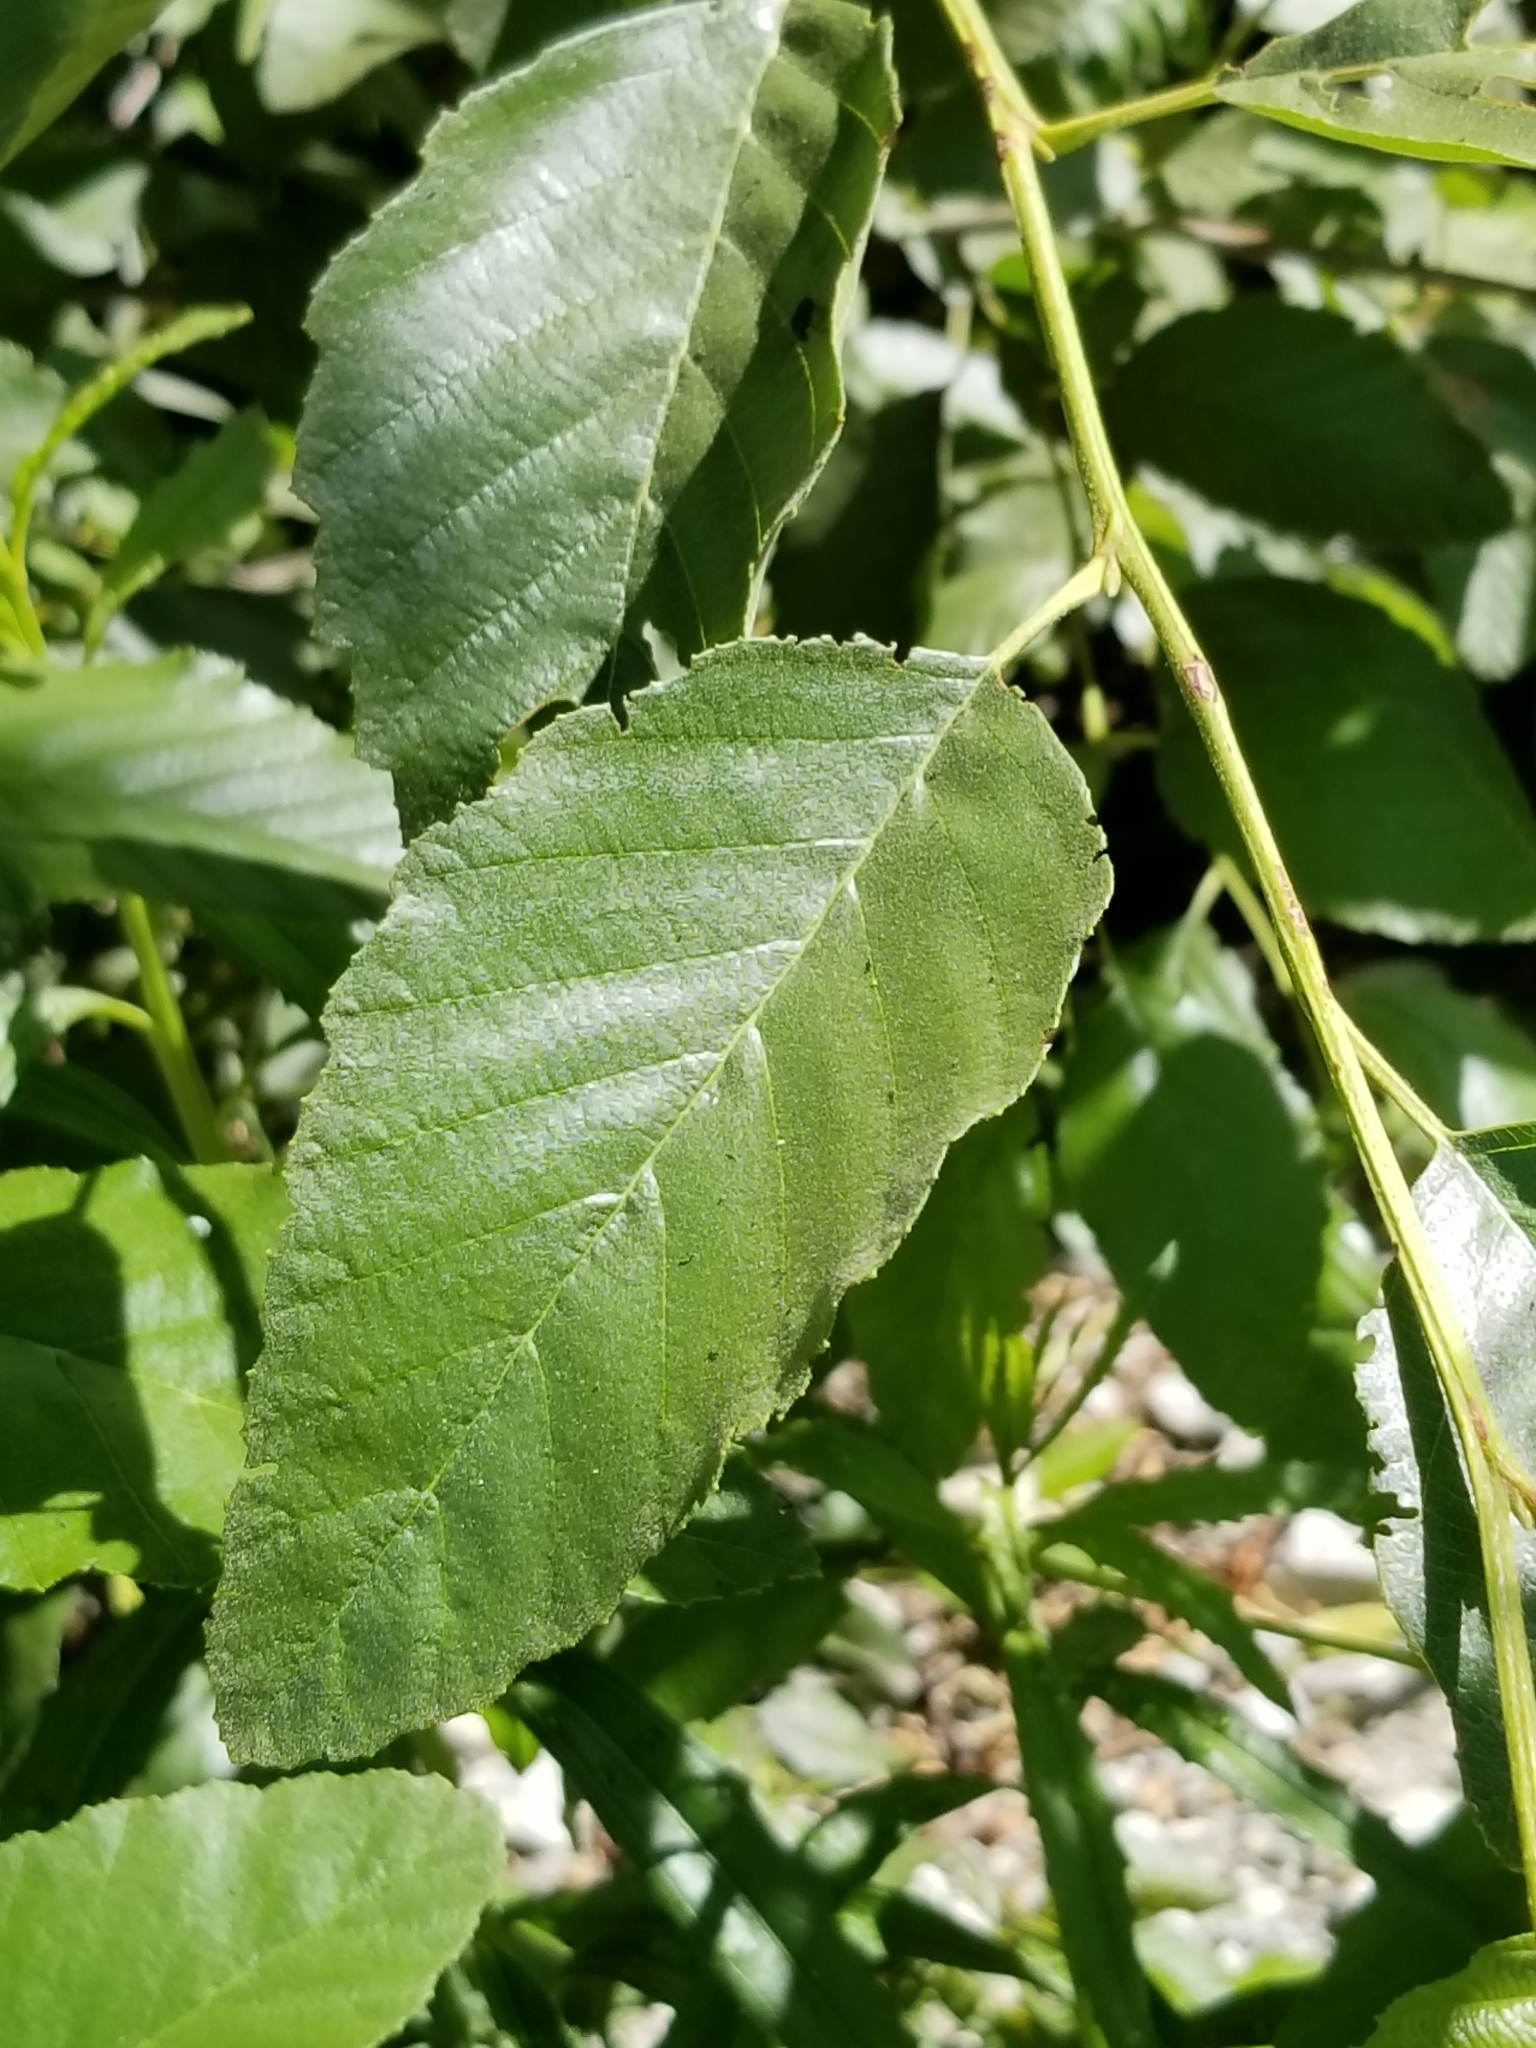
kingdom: Plantae
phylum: Tracheophyta
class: Magnoliopsida
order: Fagales
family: Betulaceae
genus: Alnus
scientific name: Alnus rhombifolia
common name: California alder
